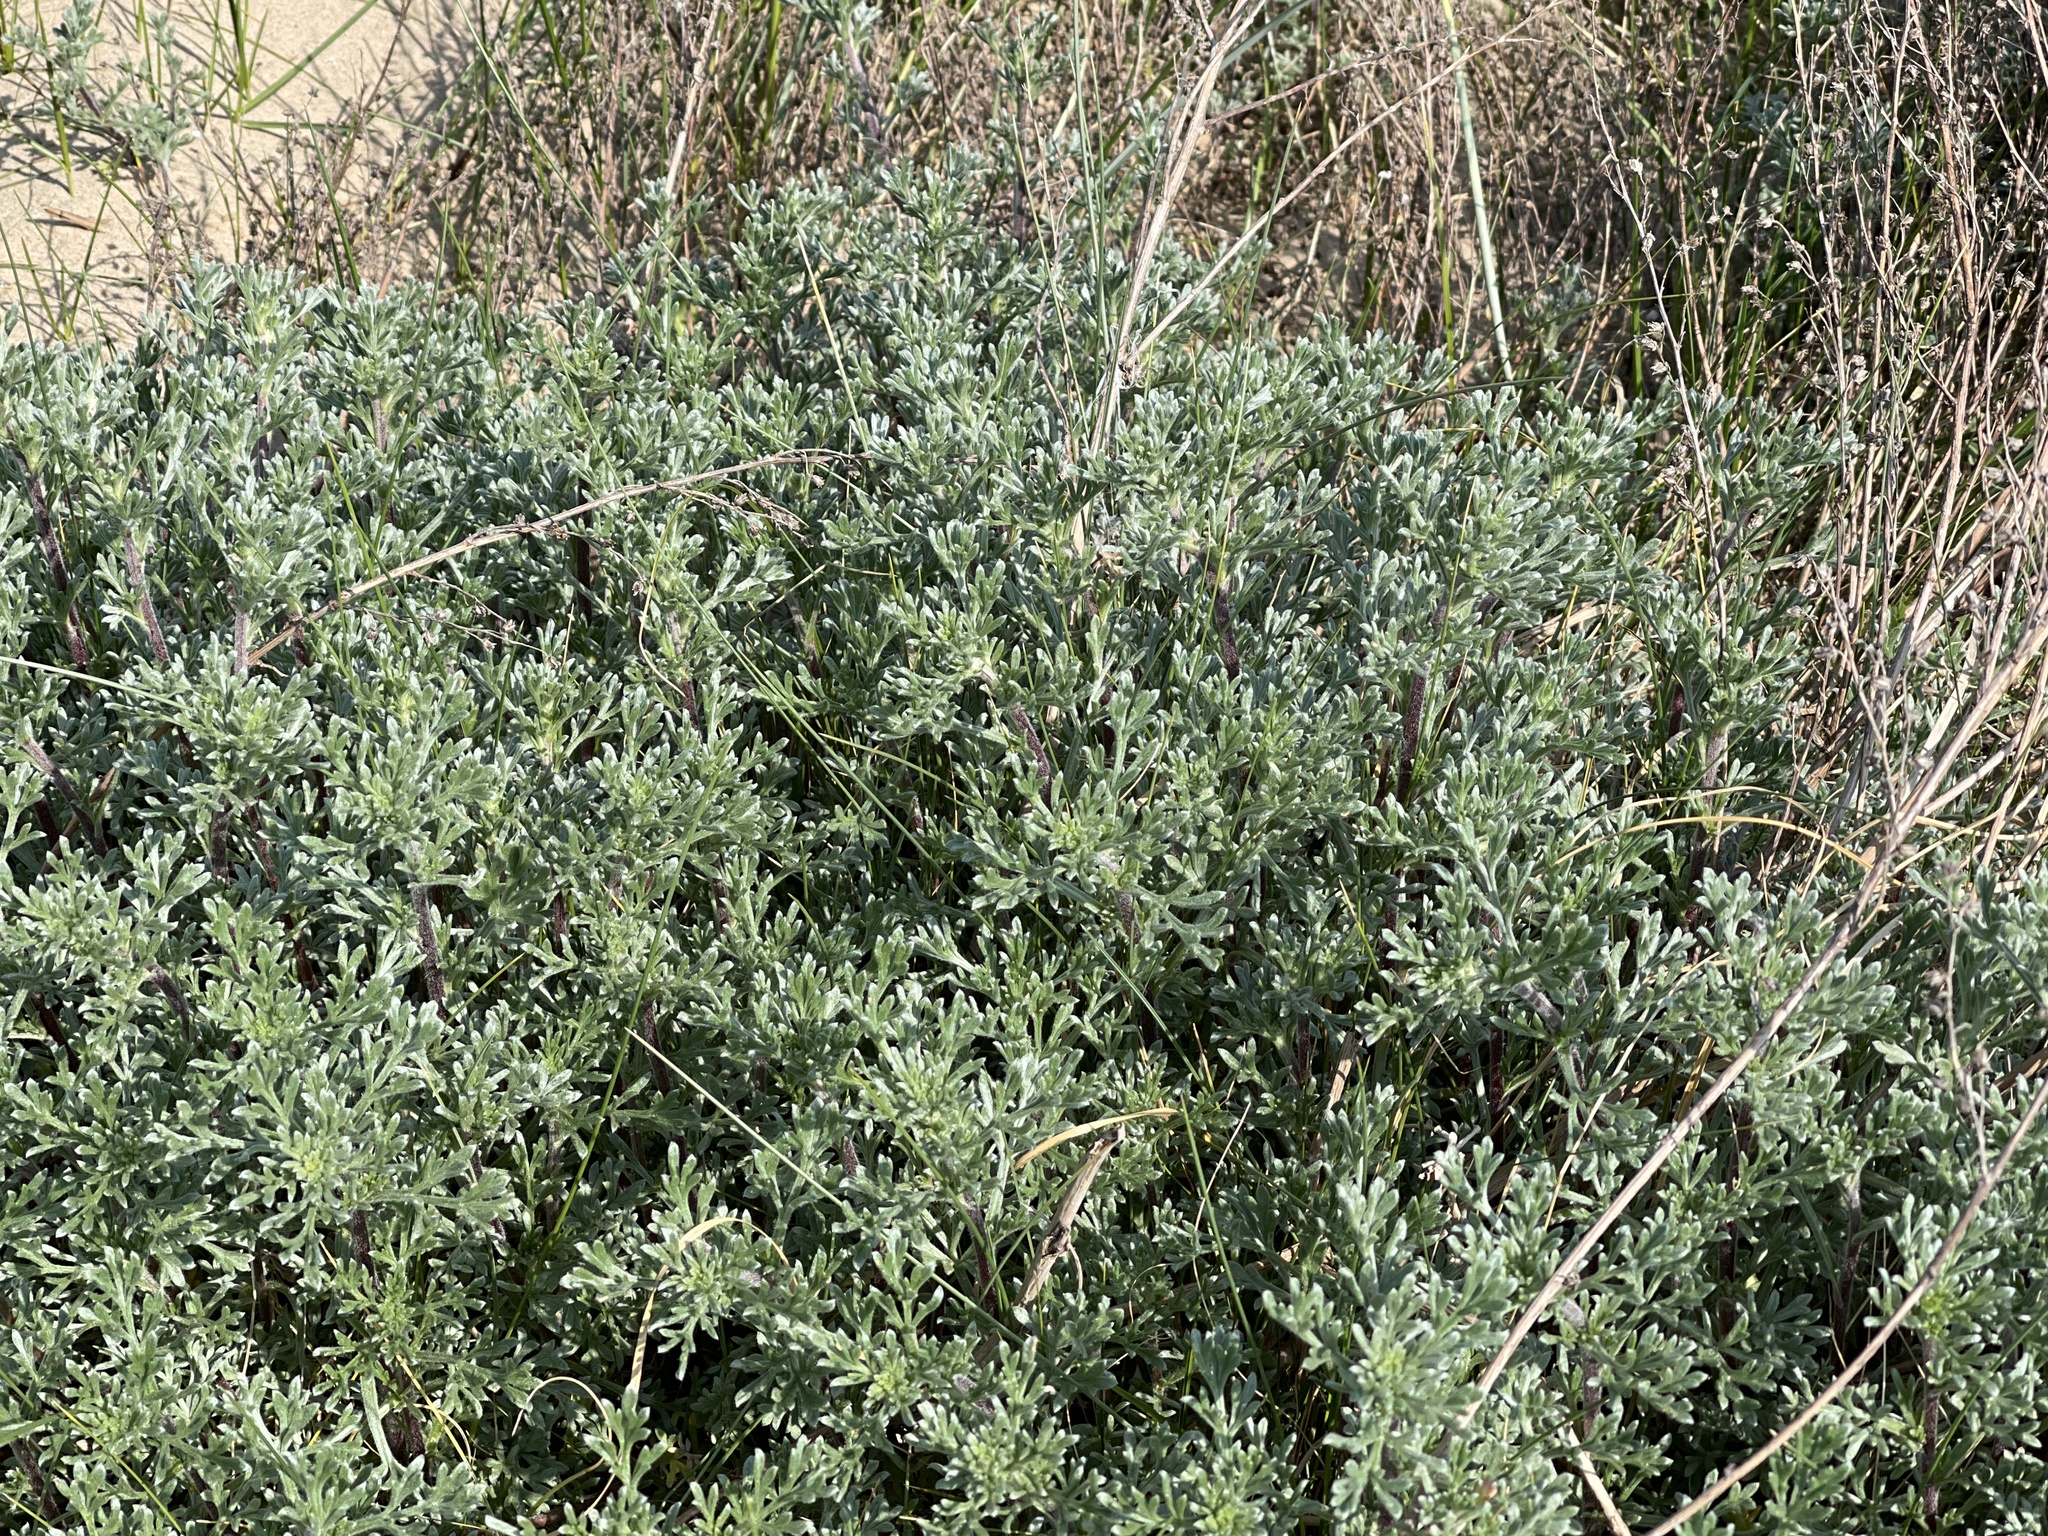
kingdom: Plantae
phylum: Tracheophyta
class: Magnoliopsida
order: Asterales
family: Asteraceae
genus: Artemisia
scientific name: Artemisia campestris
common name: Field wormwood
